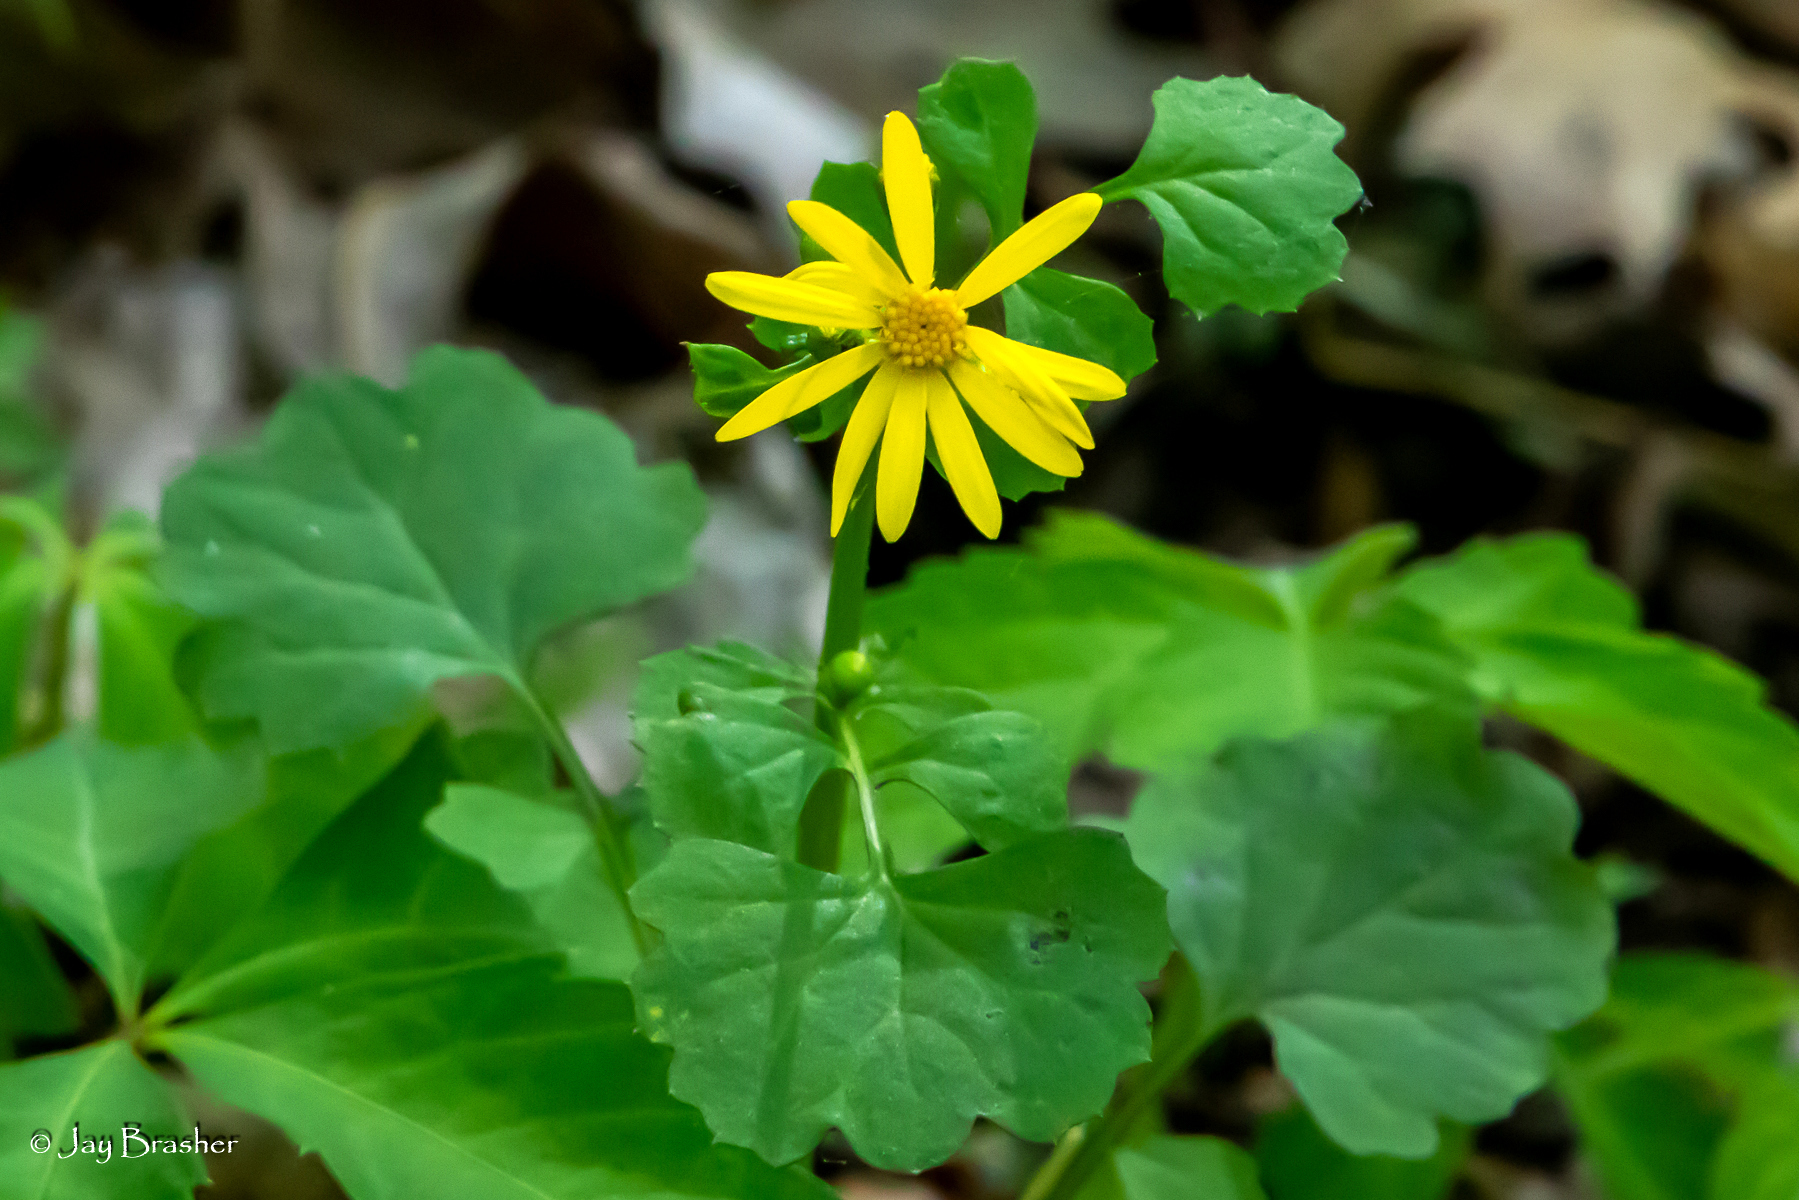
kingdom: Plantae
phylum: Tracheophyta
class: Magnoliopsida
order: Asterales
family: Asteraceae
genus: Packera
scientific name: Packera glabella
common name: Butterweed
